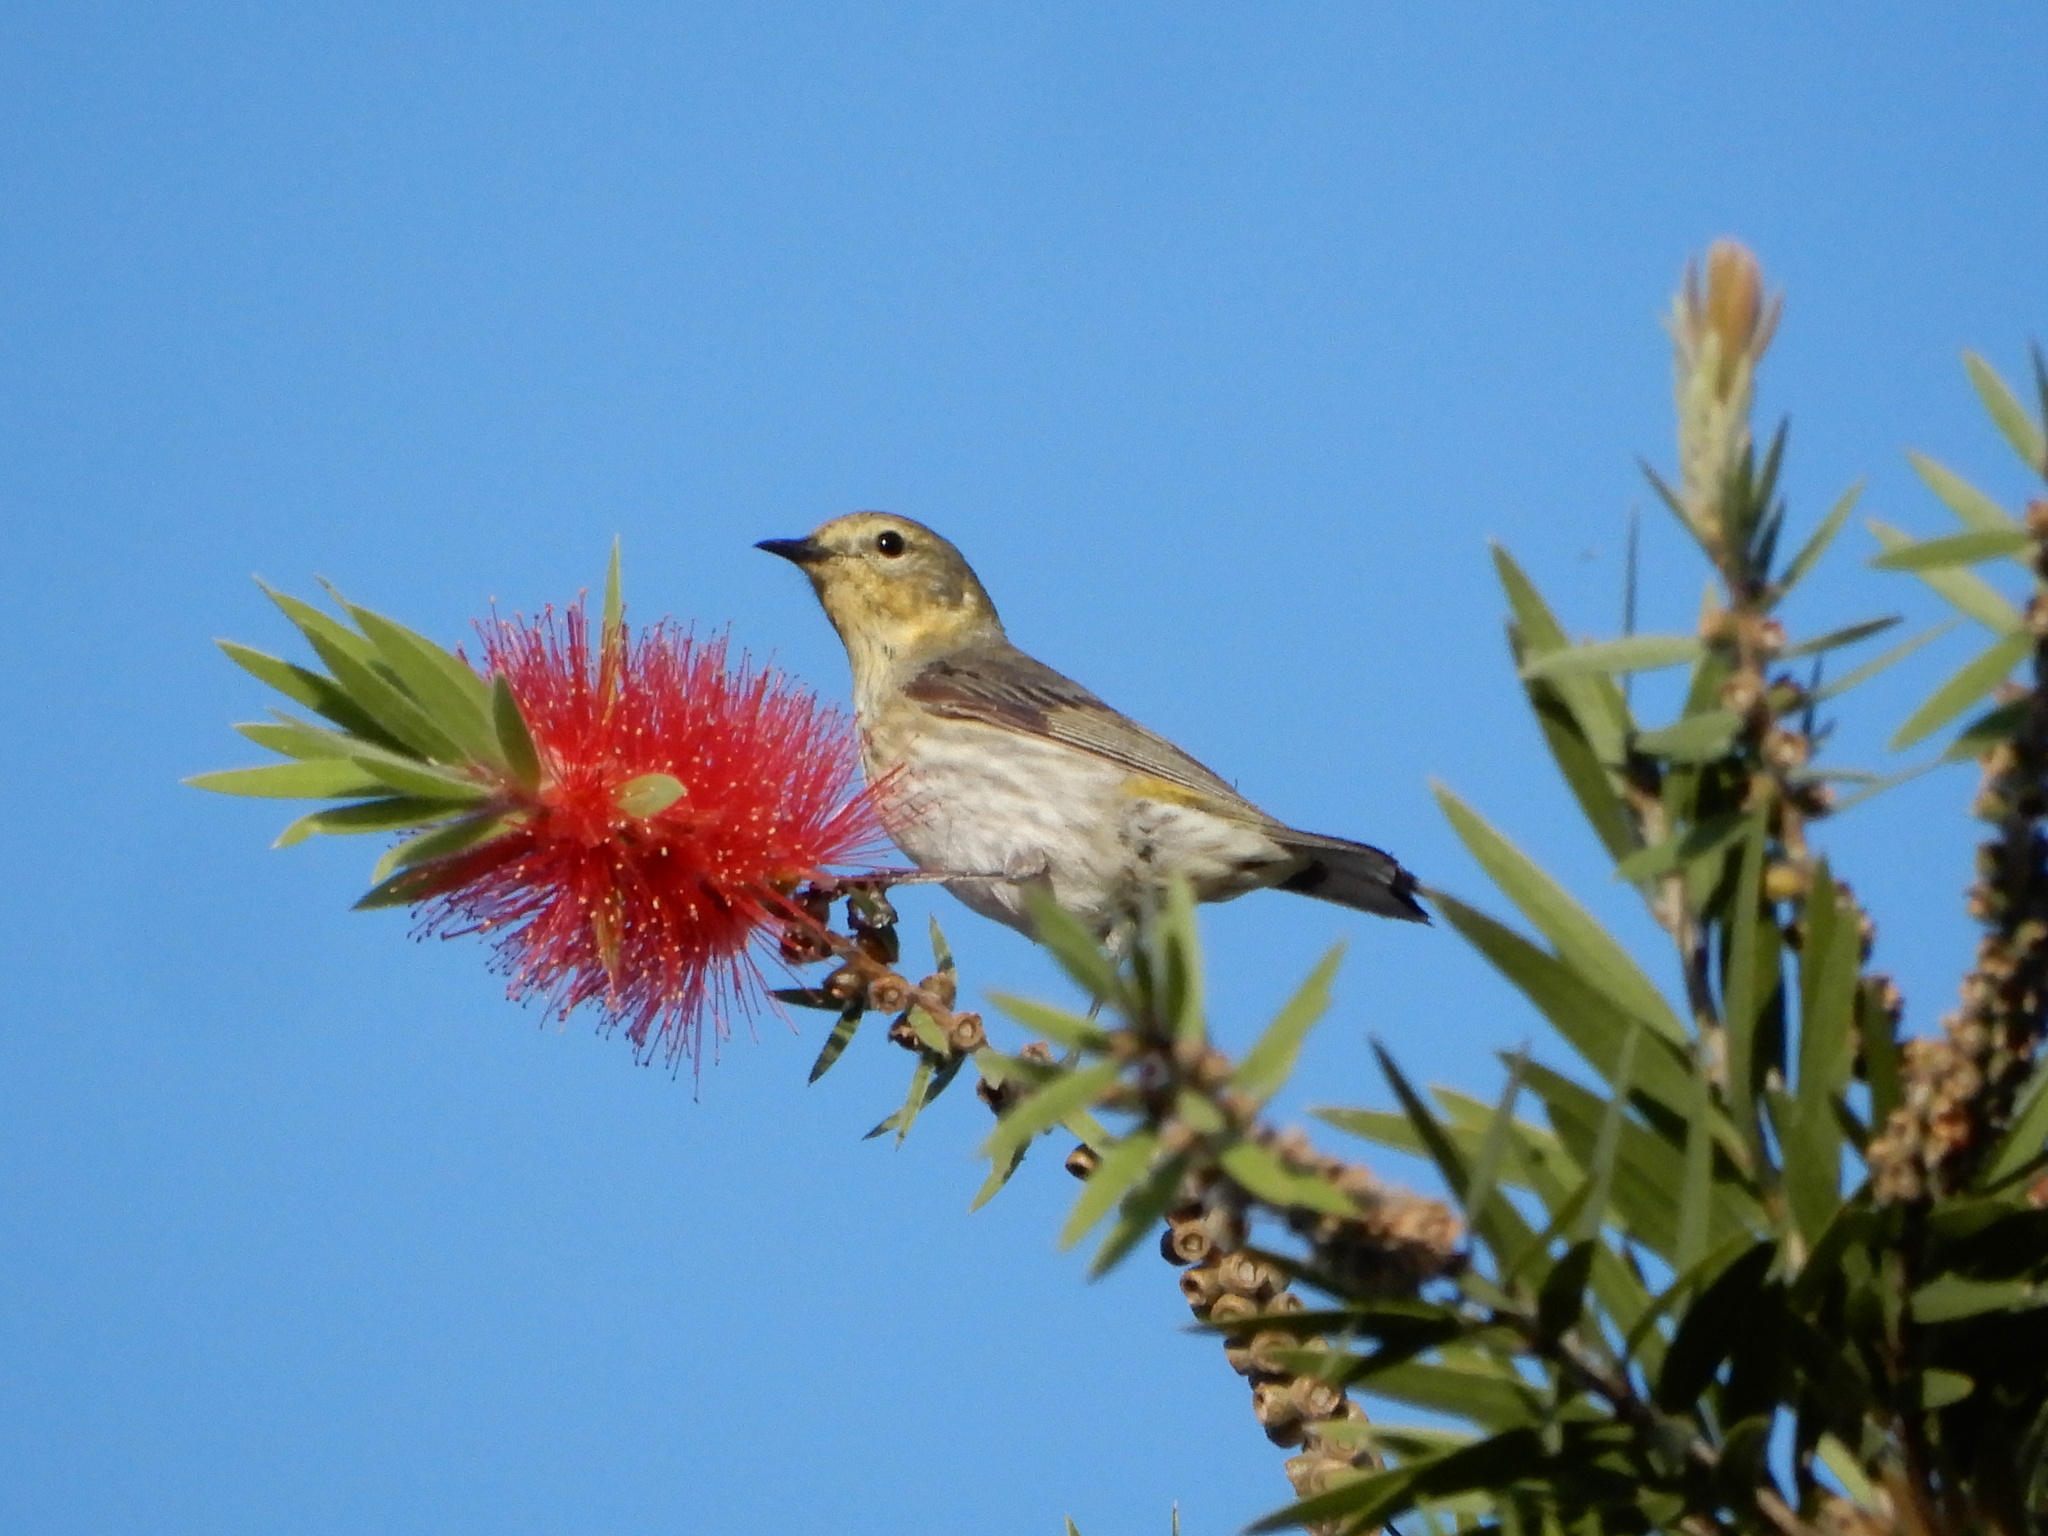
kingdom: Animalia
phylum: Chordata
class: Aves
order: Passeriformes
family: Parulidae
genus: Setophaga
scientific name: Setophaga tigrina
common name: Cape may warbler
